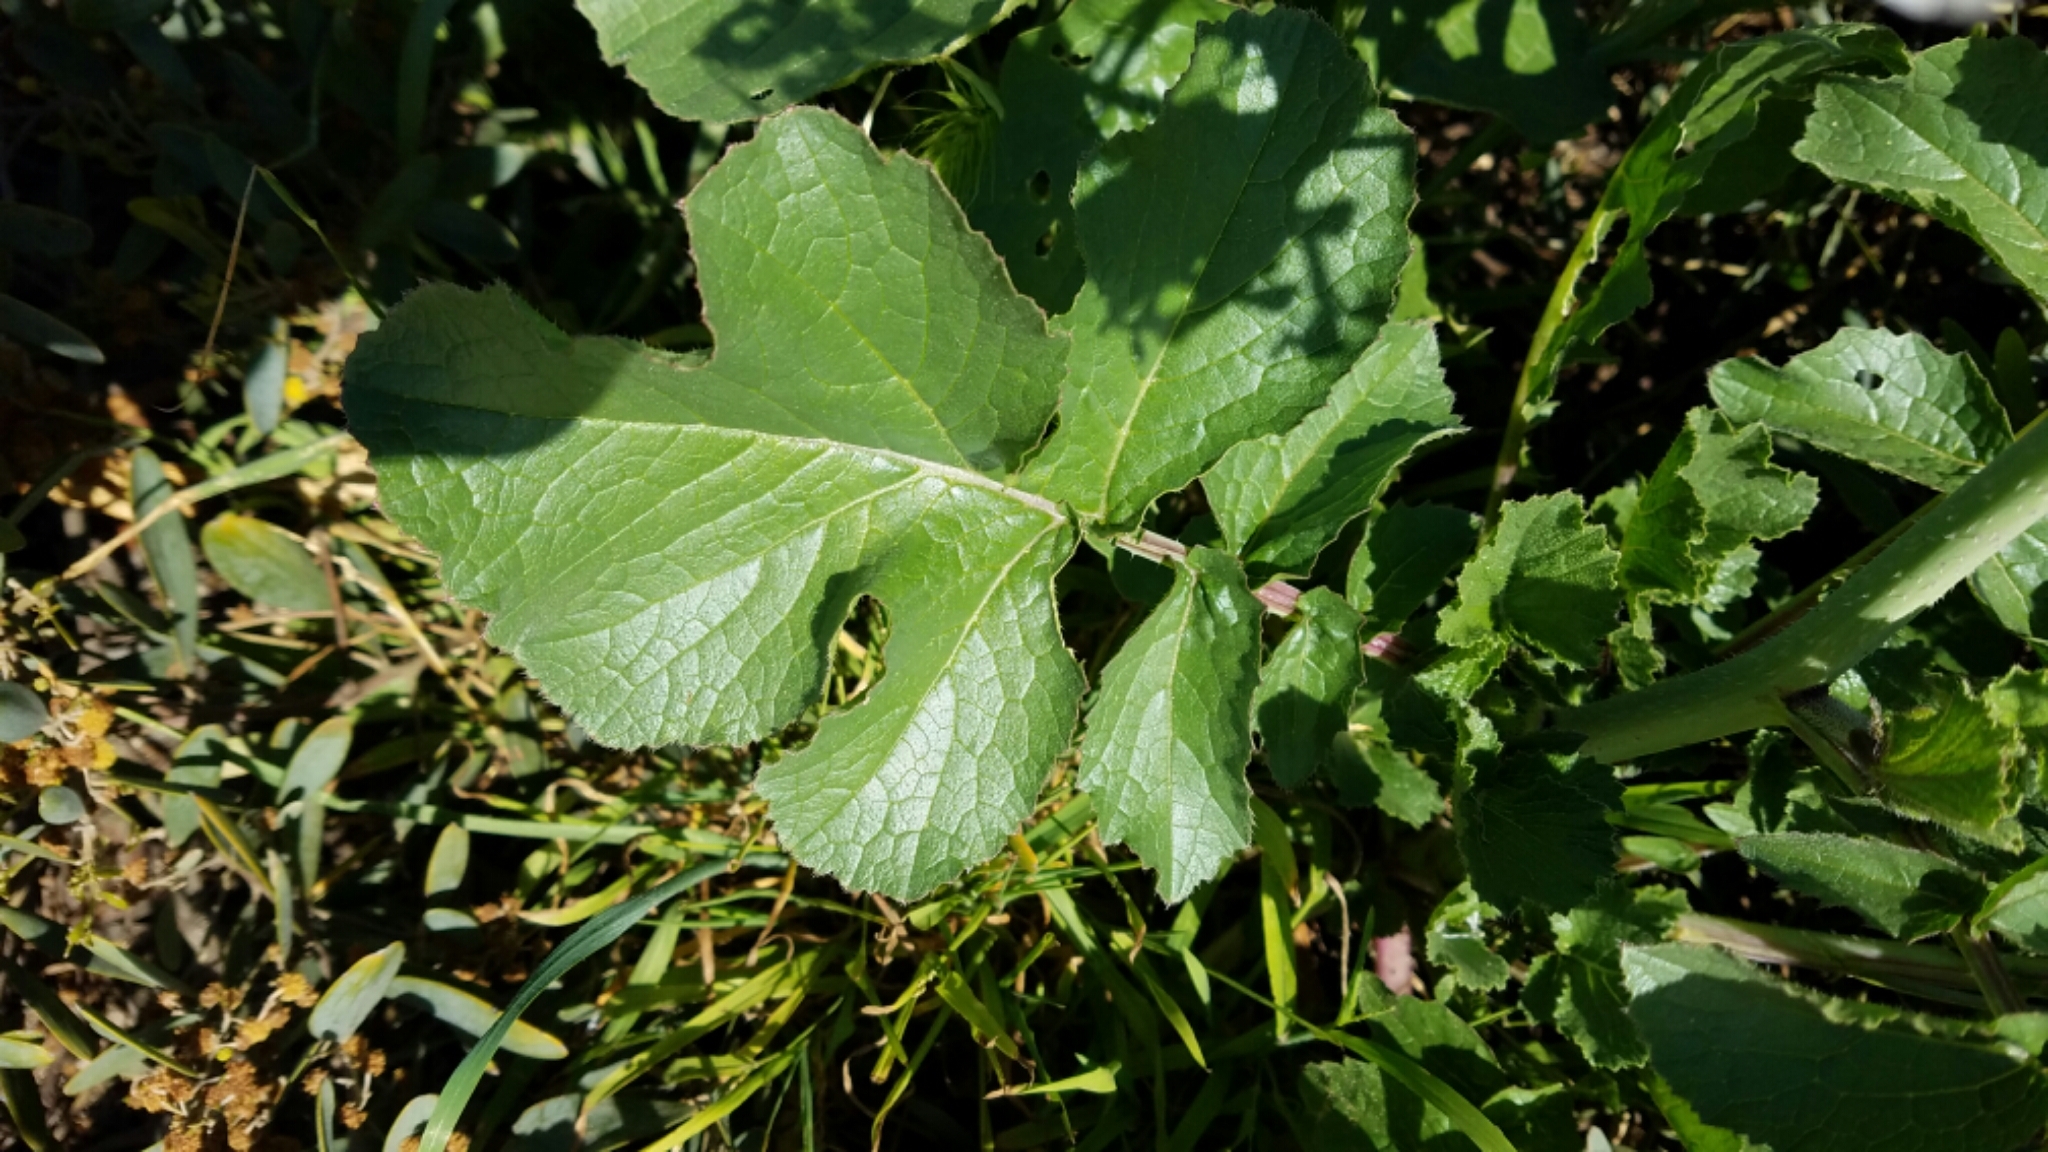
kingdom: Plantae
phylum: Tracheophyta
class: Magnoliopsida
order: Brassicales
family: Brassicaceae
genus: Raphanus
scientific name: Raphanus sativus
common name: Cultivated radish
